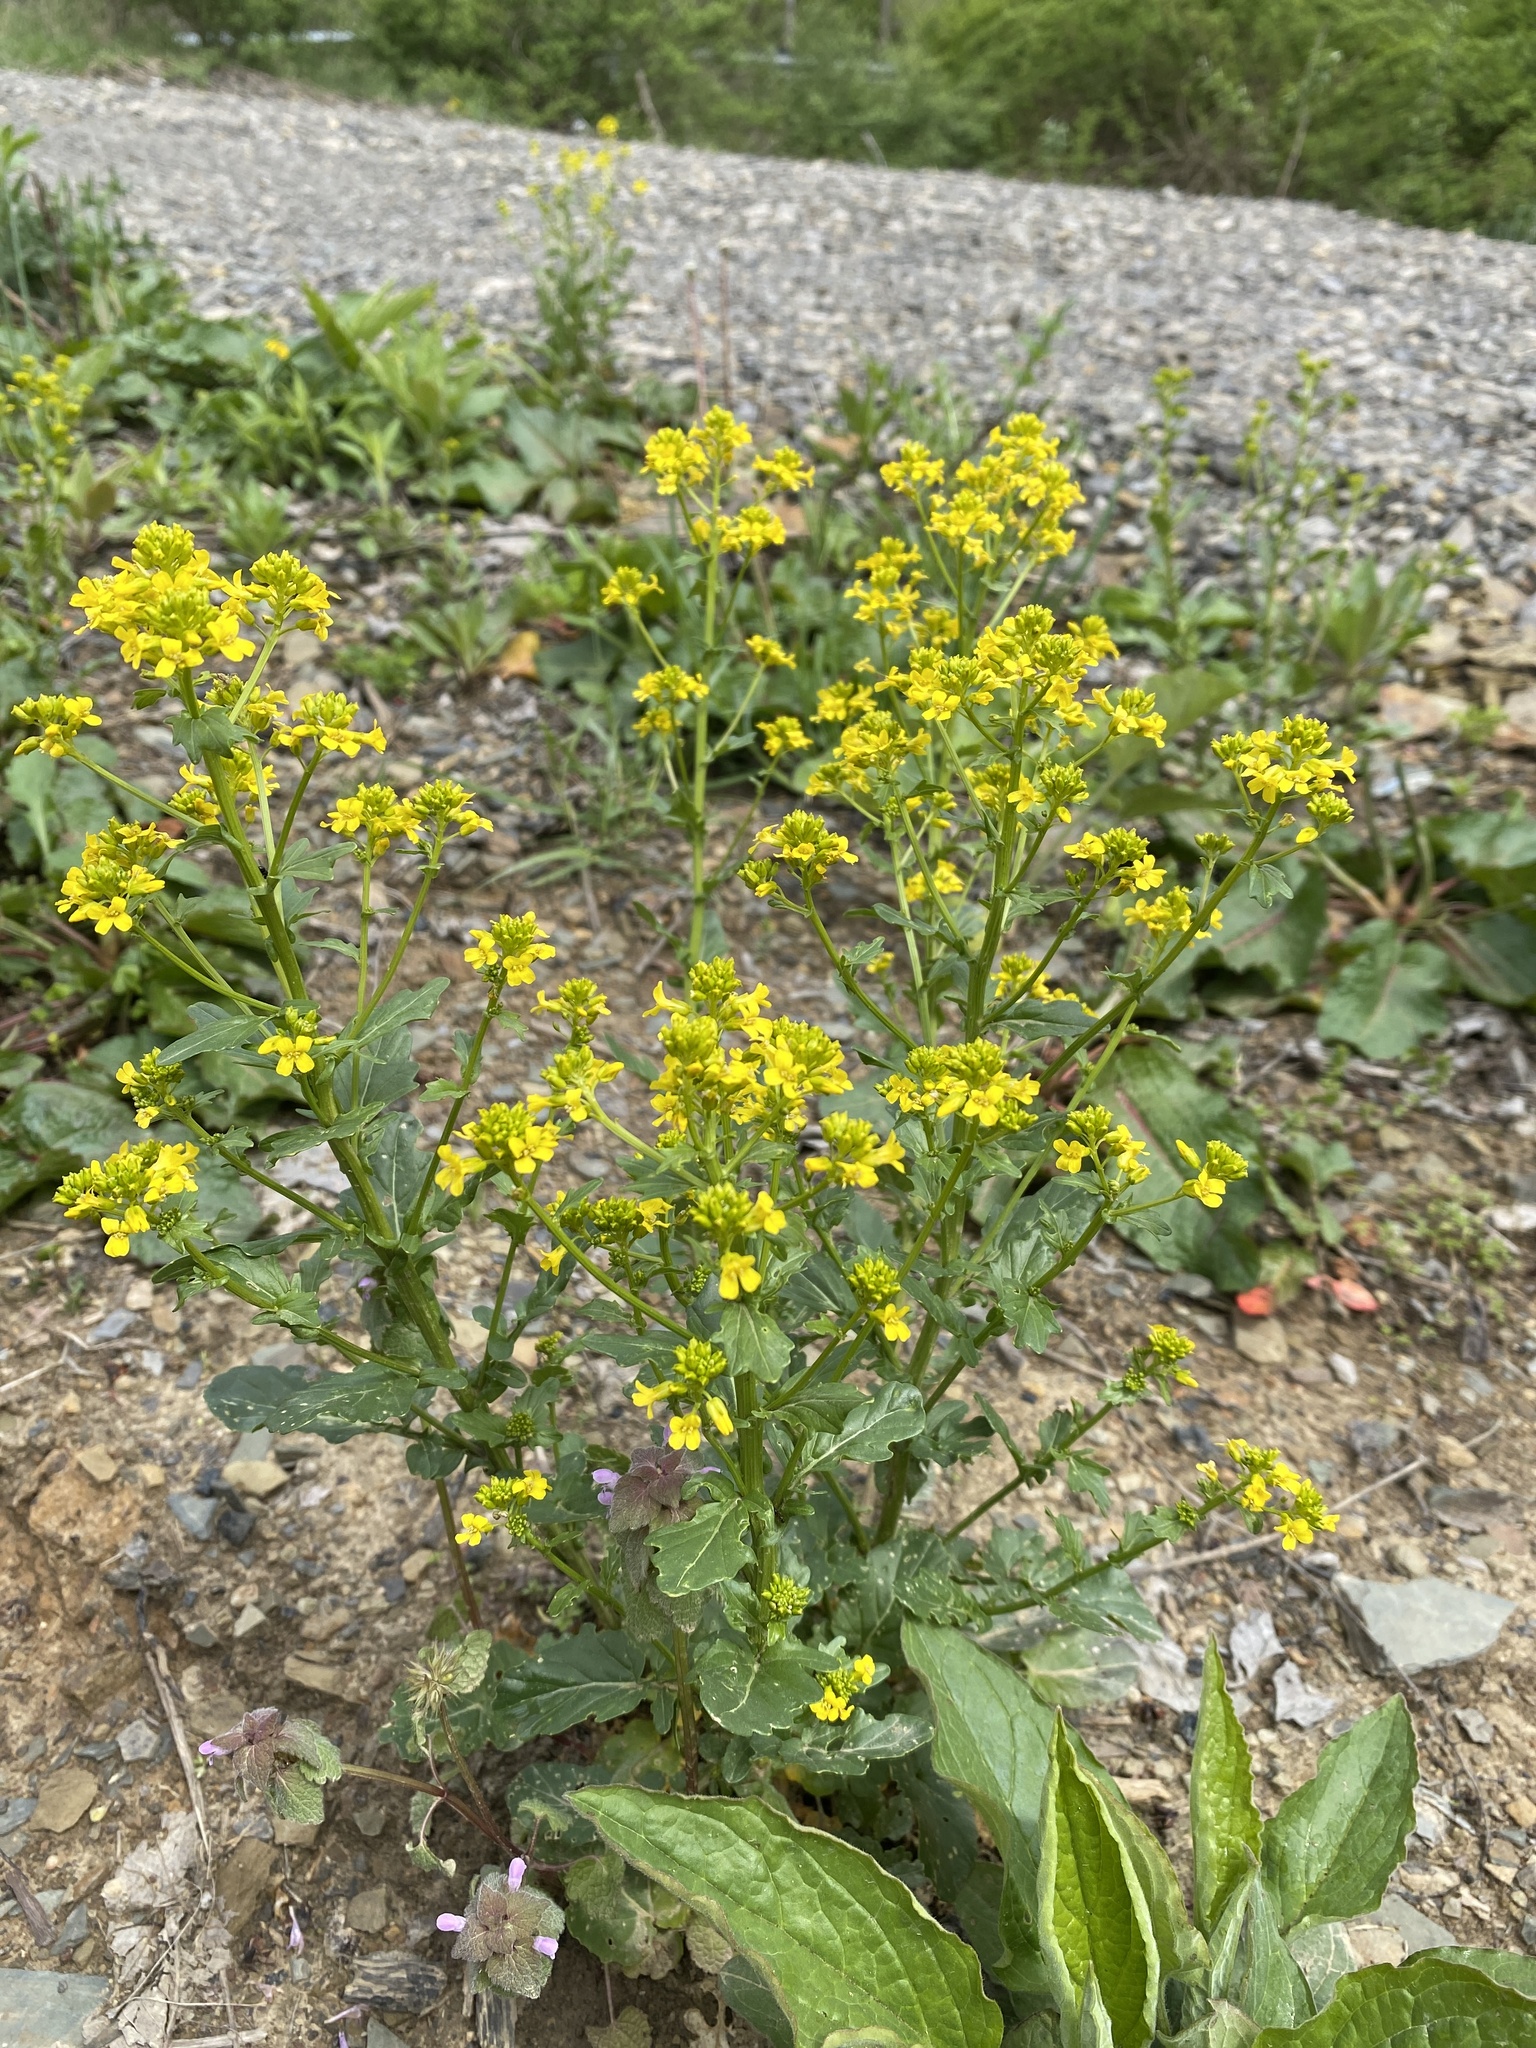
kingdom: Plantae
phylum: Tracheophyta
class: Magnoliopsida
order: Brassicales
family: Brassicaceae
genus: Barbarea
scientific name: Barbarea vulgaris
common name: Cressy-greens
